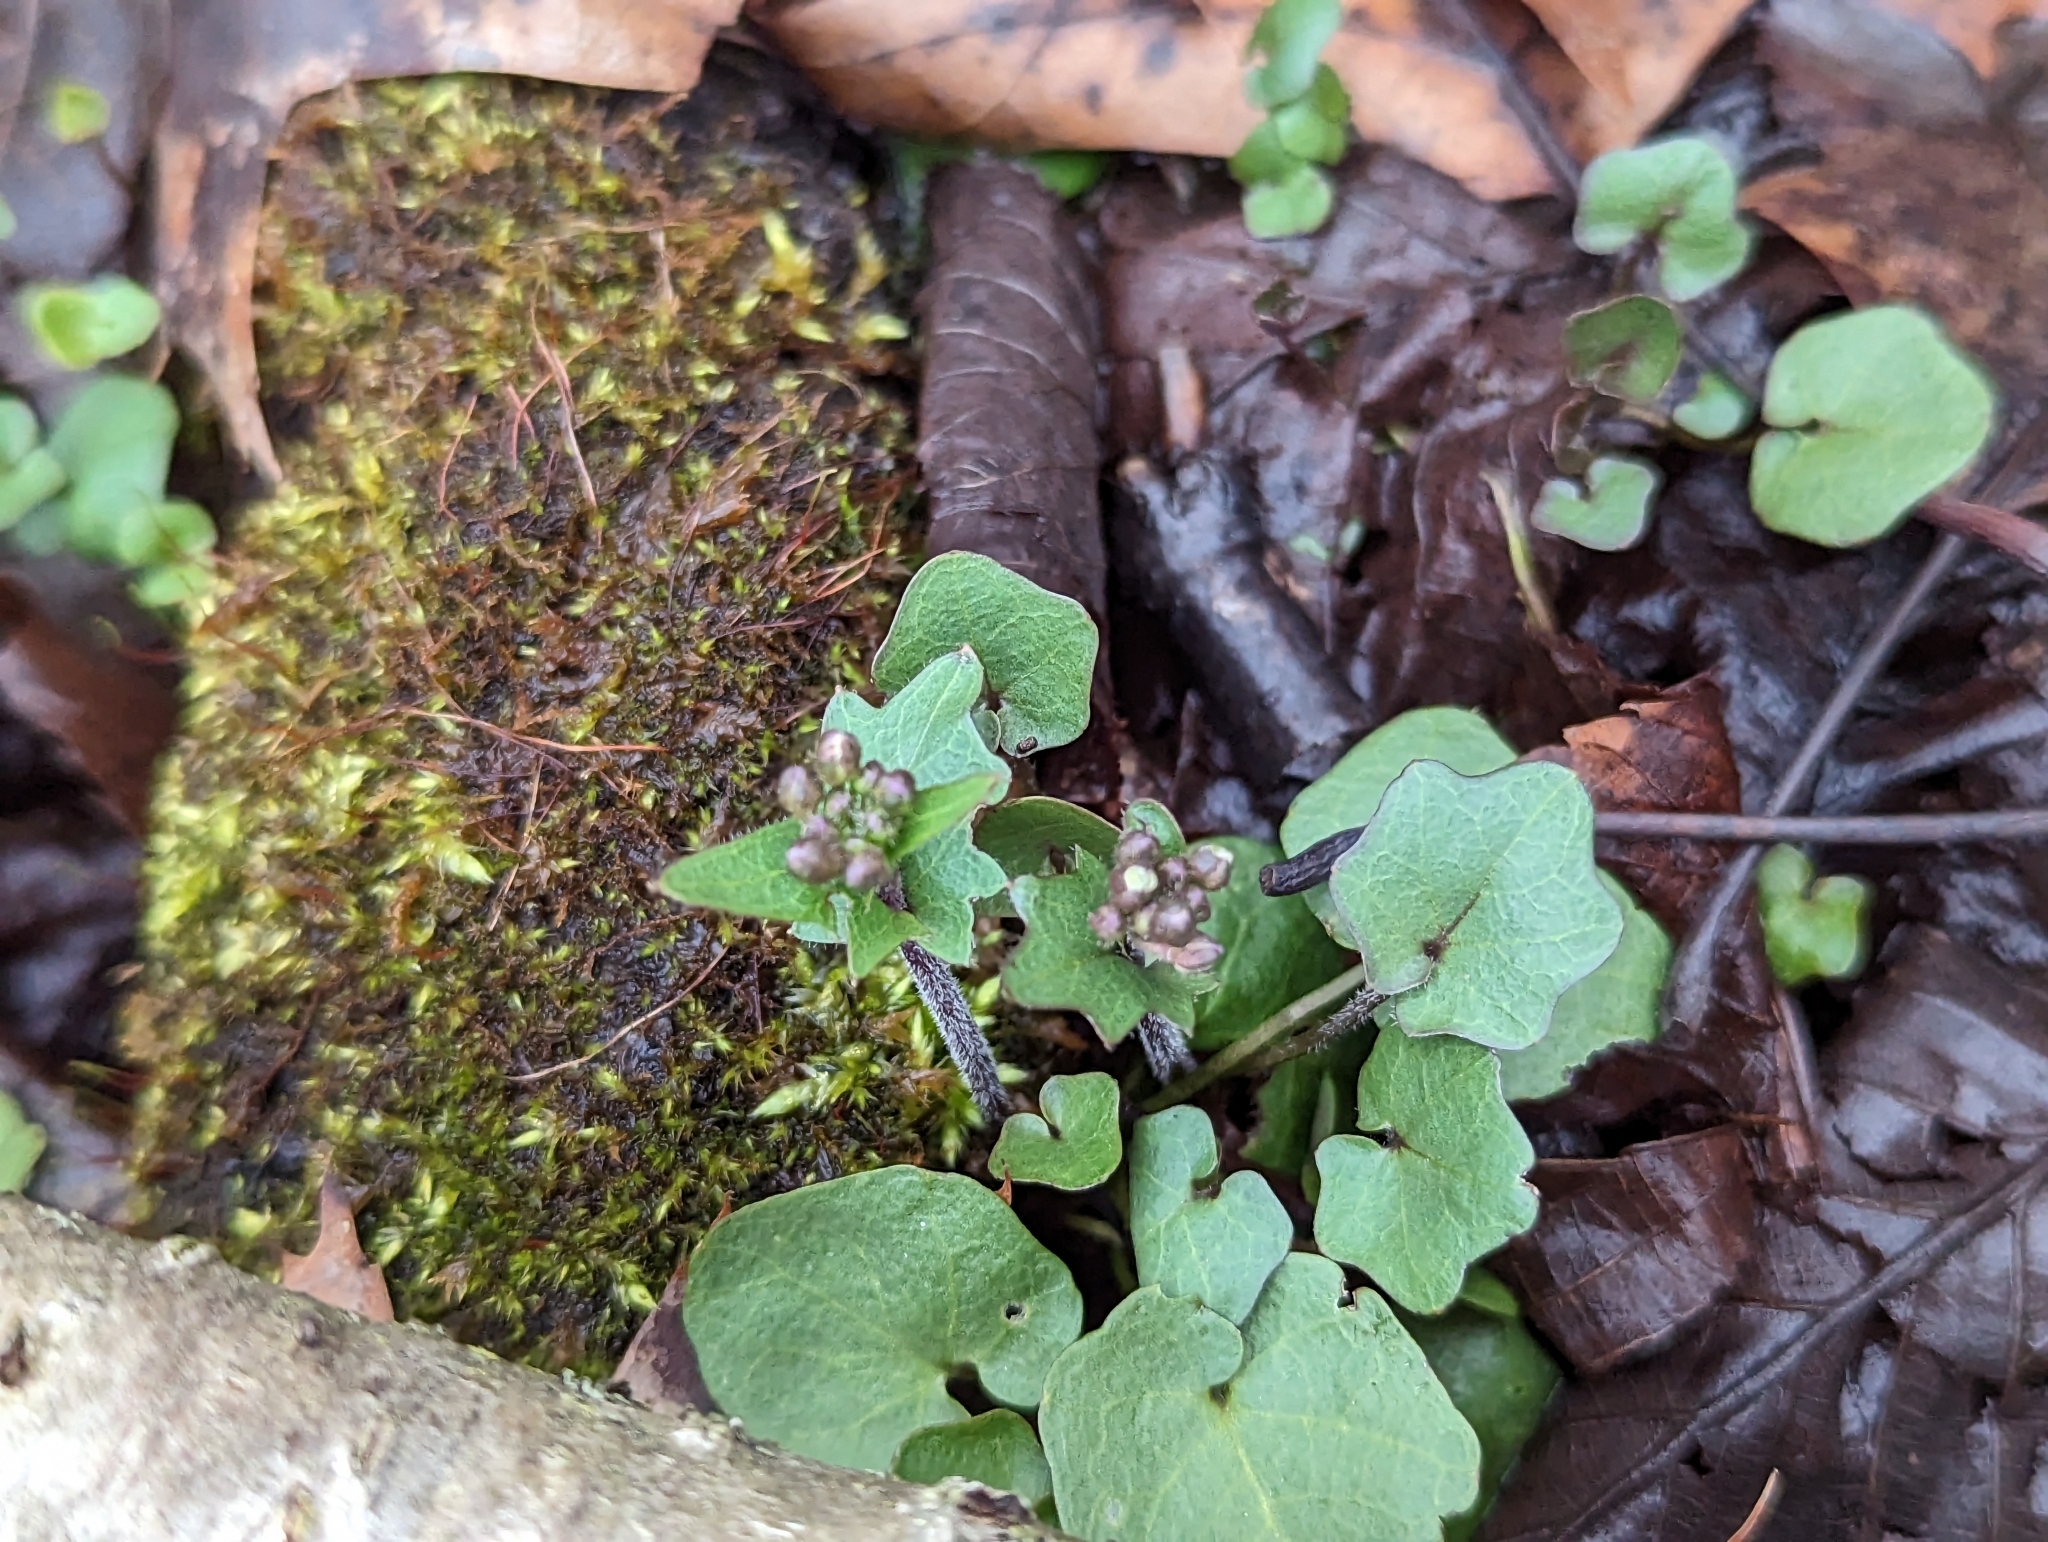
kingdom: Plantae
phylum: Tracheophyta
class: Magnoliopsida
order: Brassicales
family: Brassicaceae
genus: Cardamine
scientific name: Cardamine douglassii
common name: Purple cress
